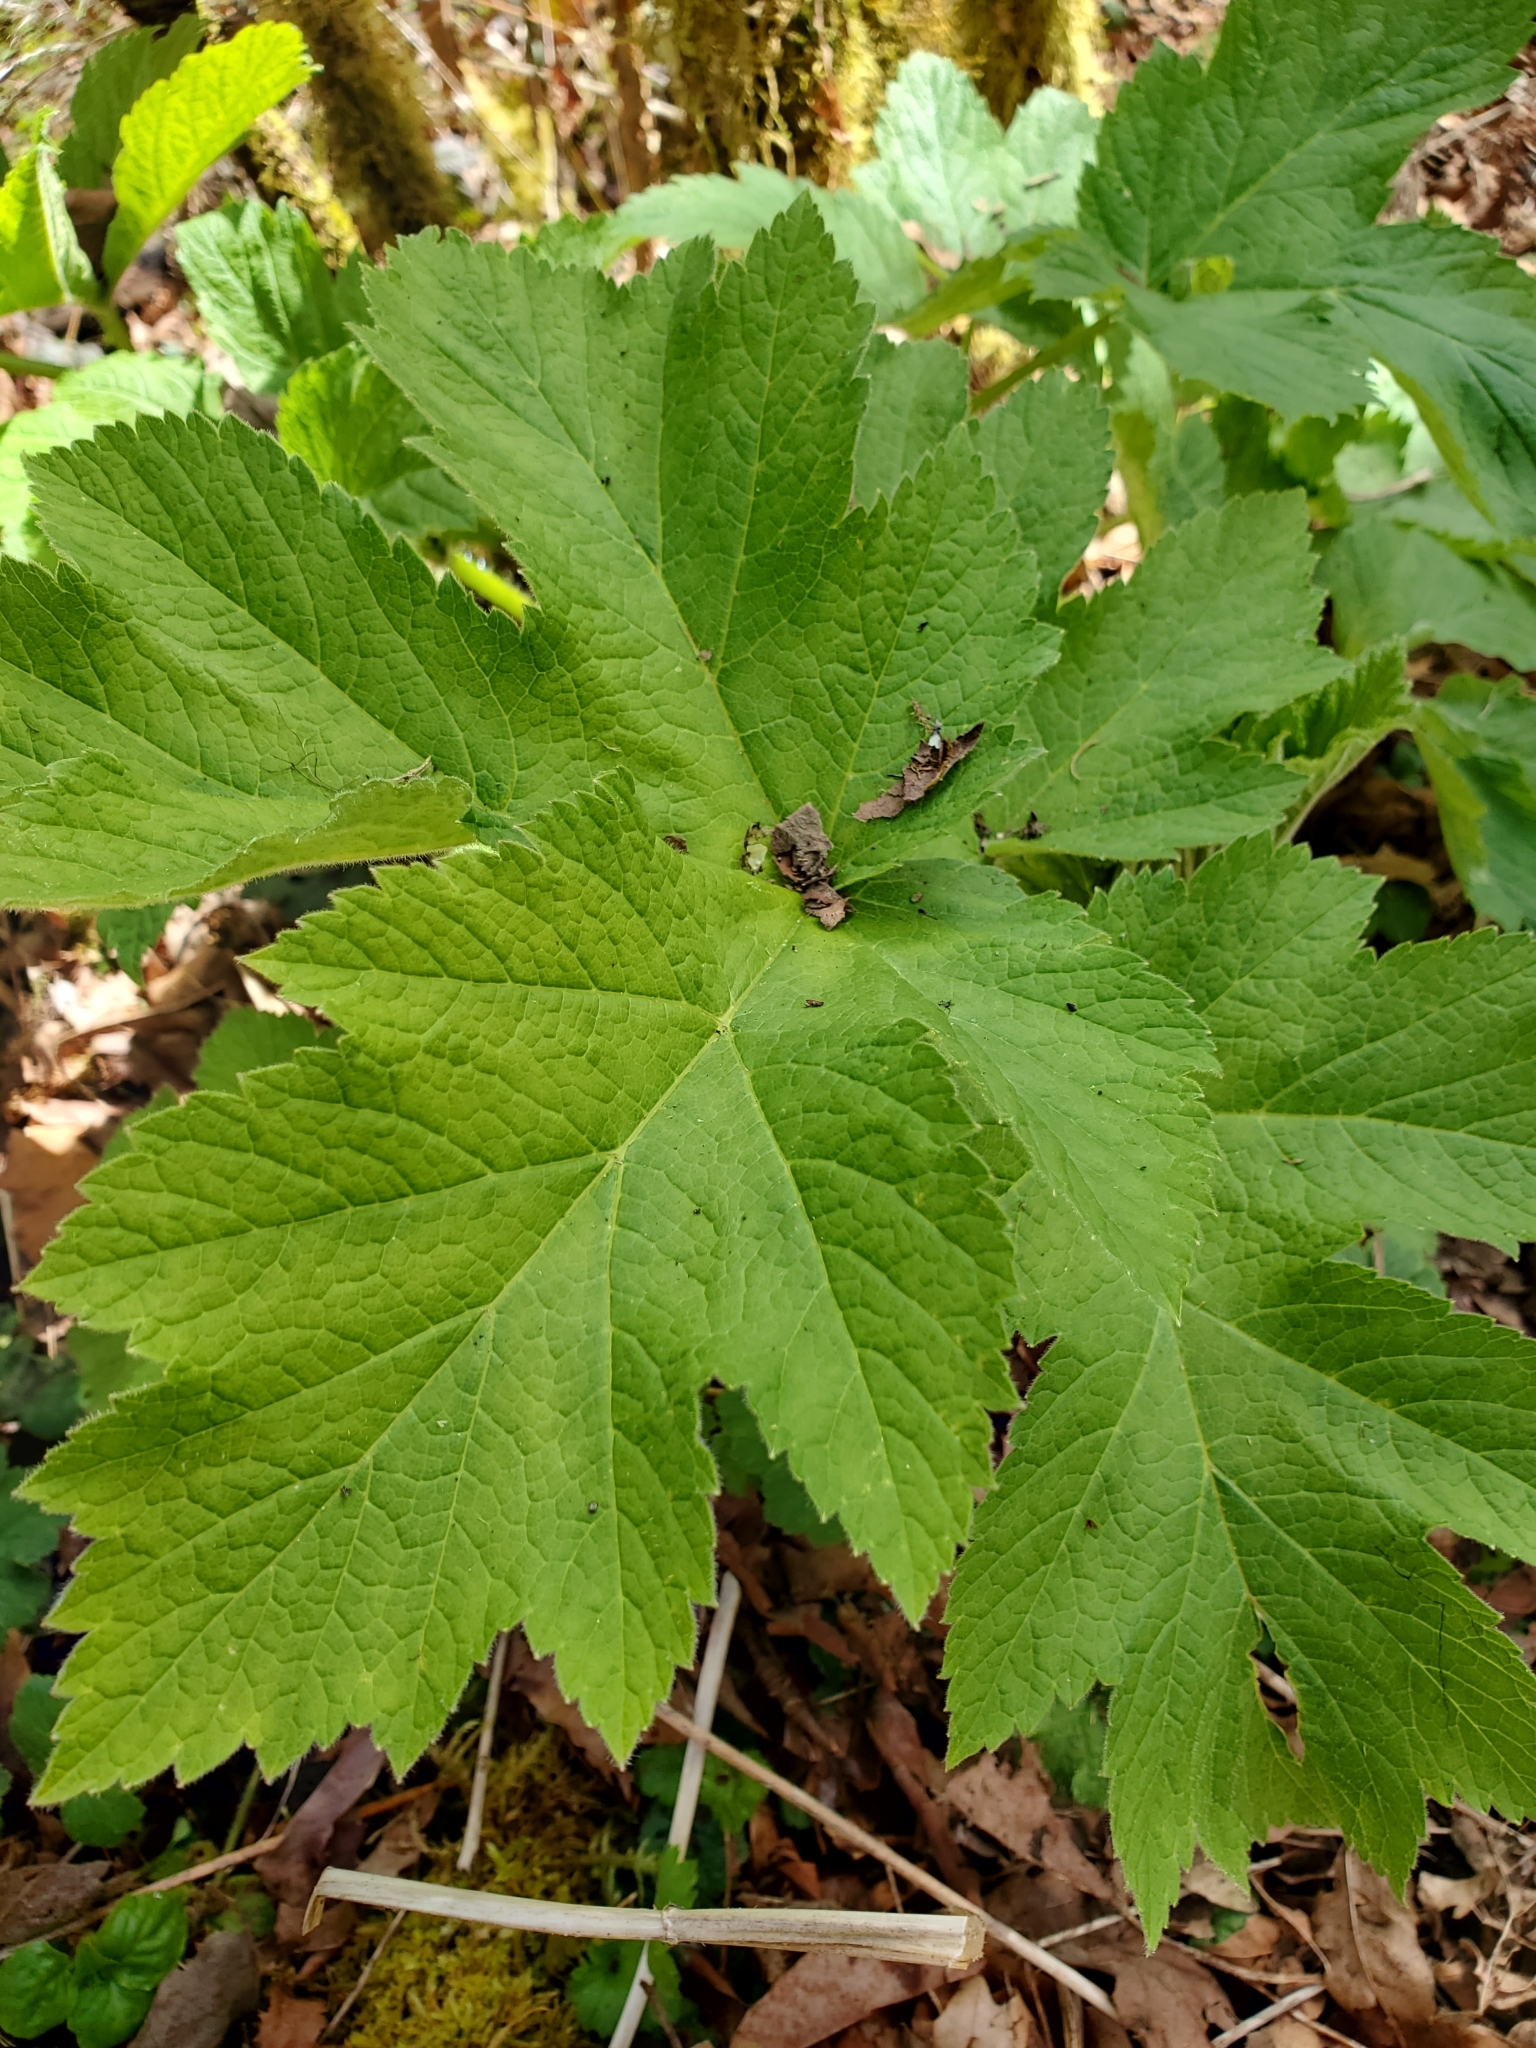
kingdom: Plantae
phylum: Tracheophyta
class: Magnoliopsida
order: Apiales
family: Apiaceae
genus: Heracleum
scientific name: Heracleum maximum
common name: American cow parsnip
